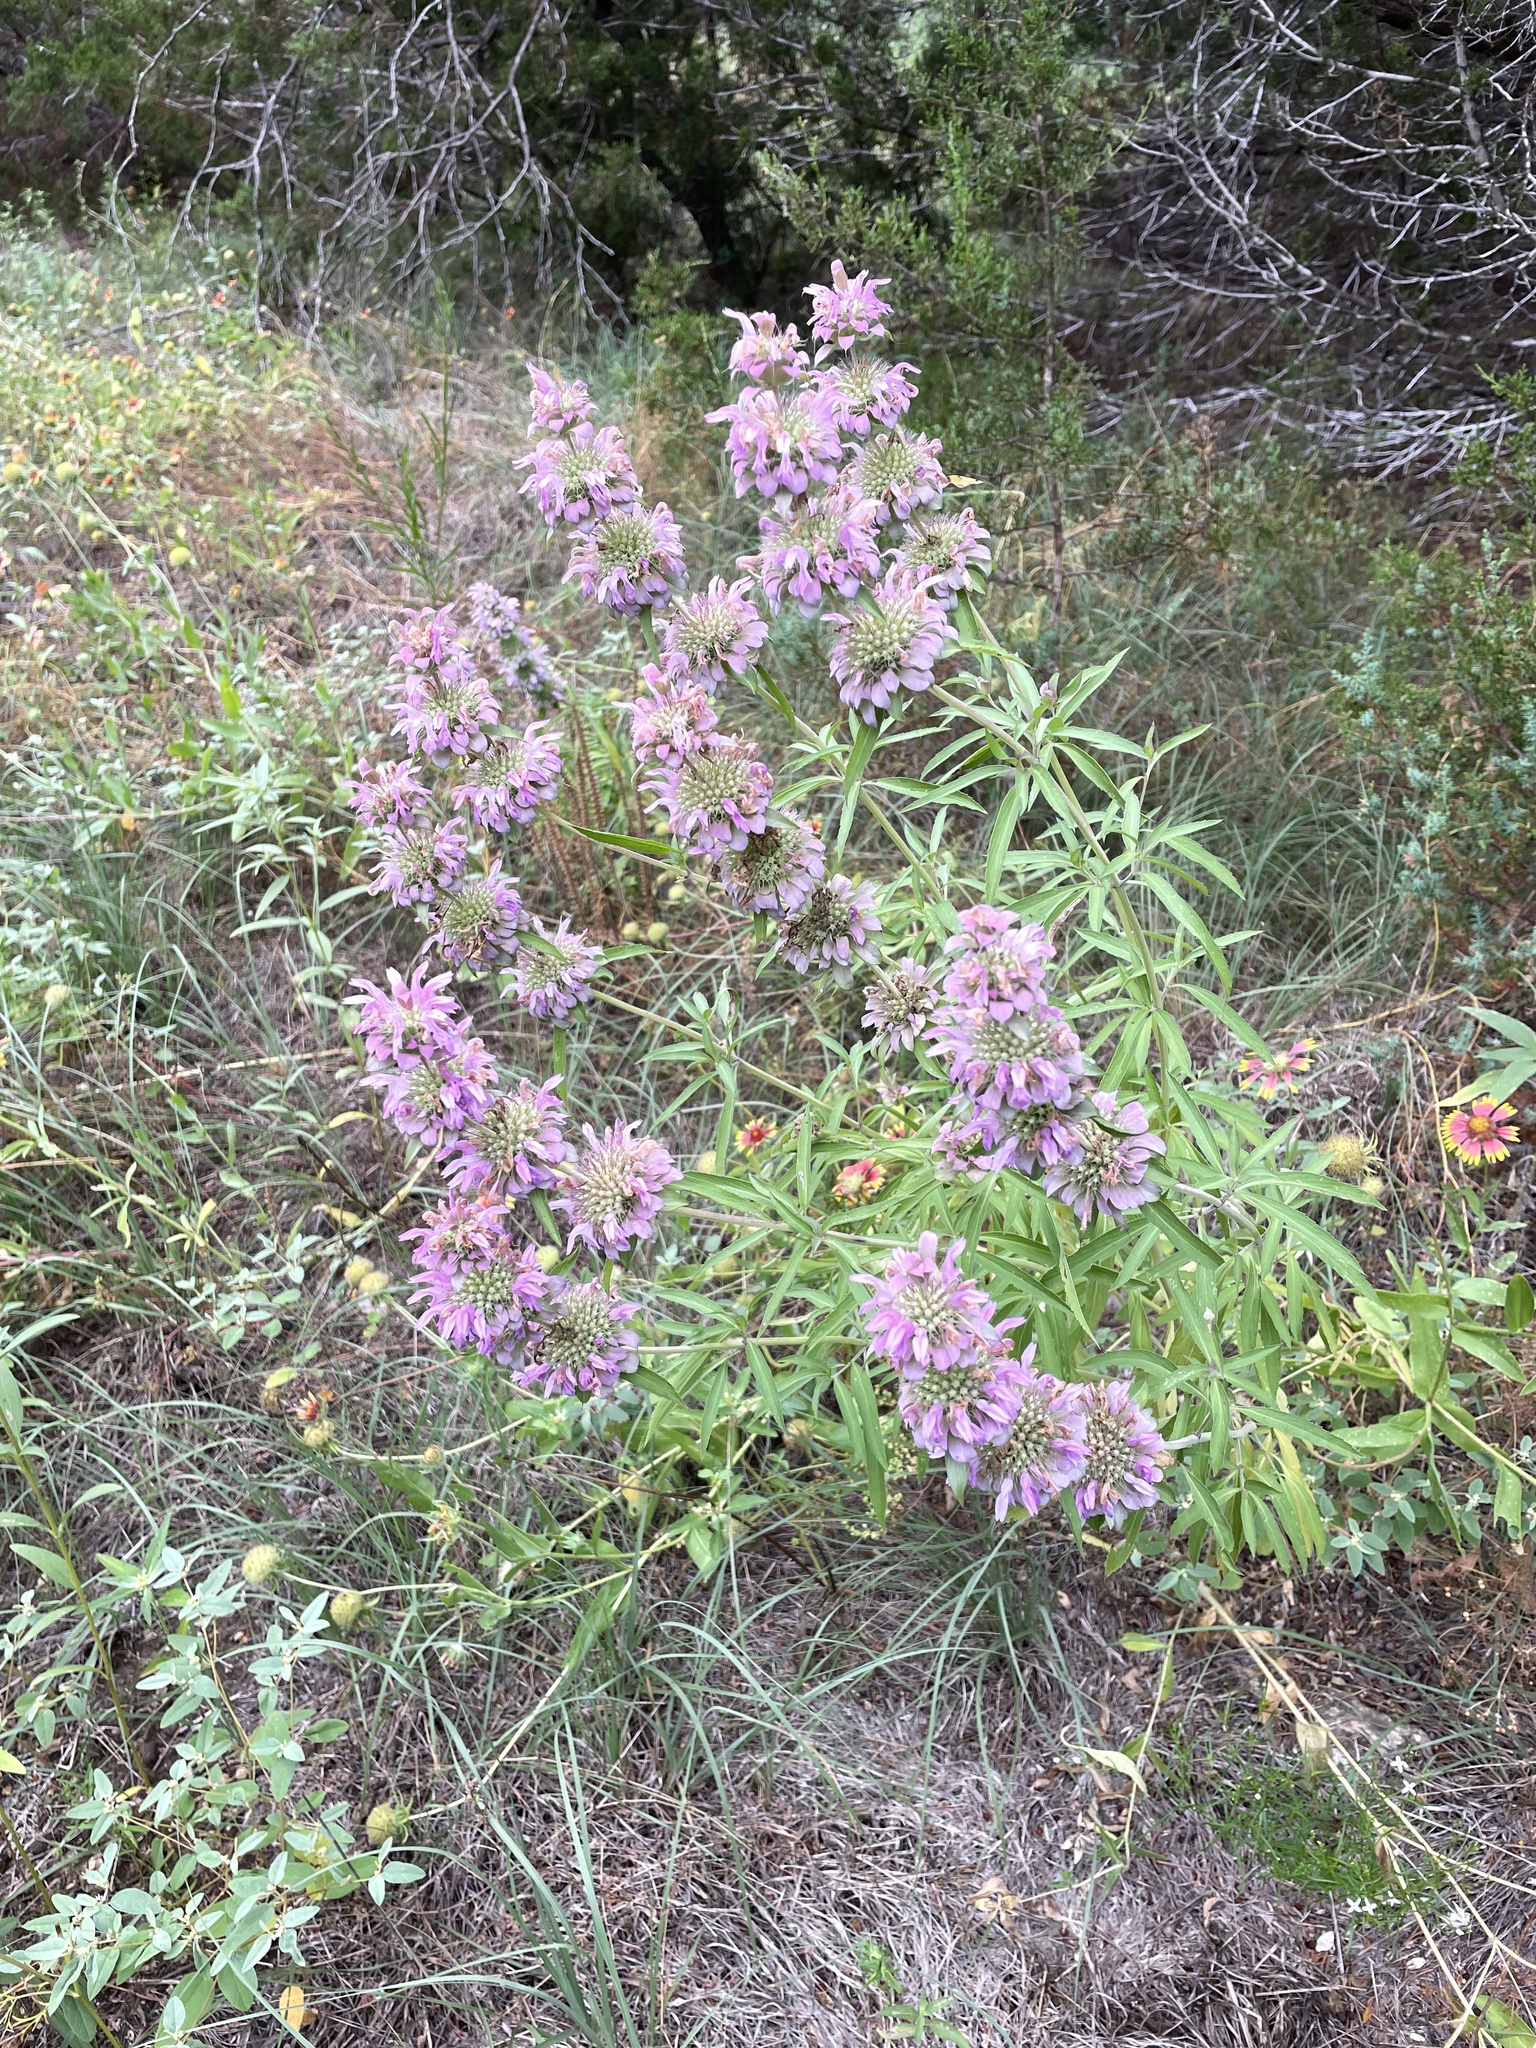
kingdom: Plantae
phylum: Tracheophyta
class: Magnoliopsida
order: Lamiales
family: Lamiaceae
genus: Monarda
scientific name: Monarda citriodora
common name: Lemon beebalm
